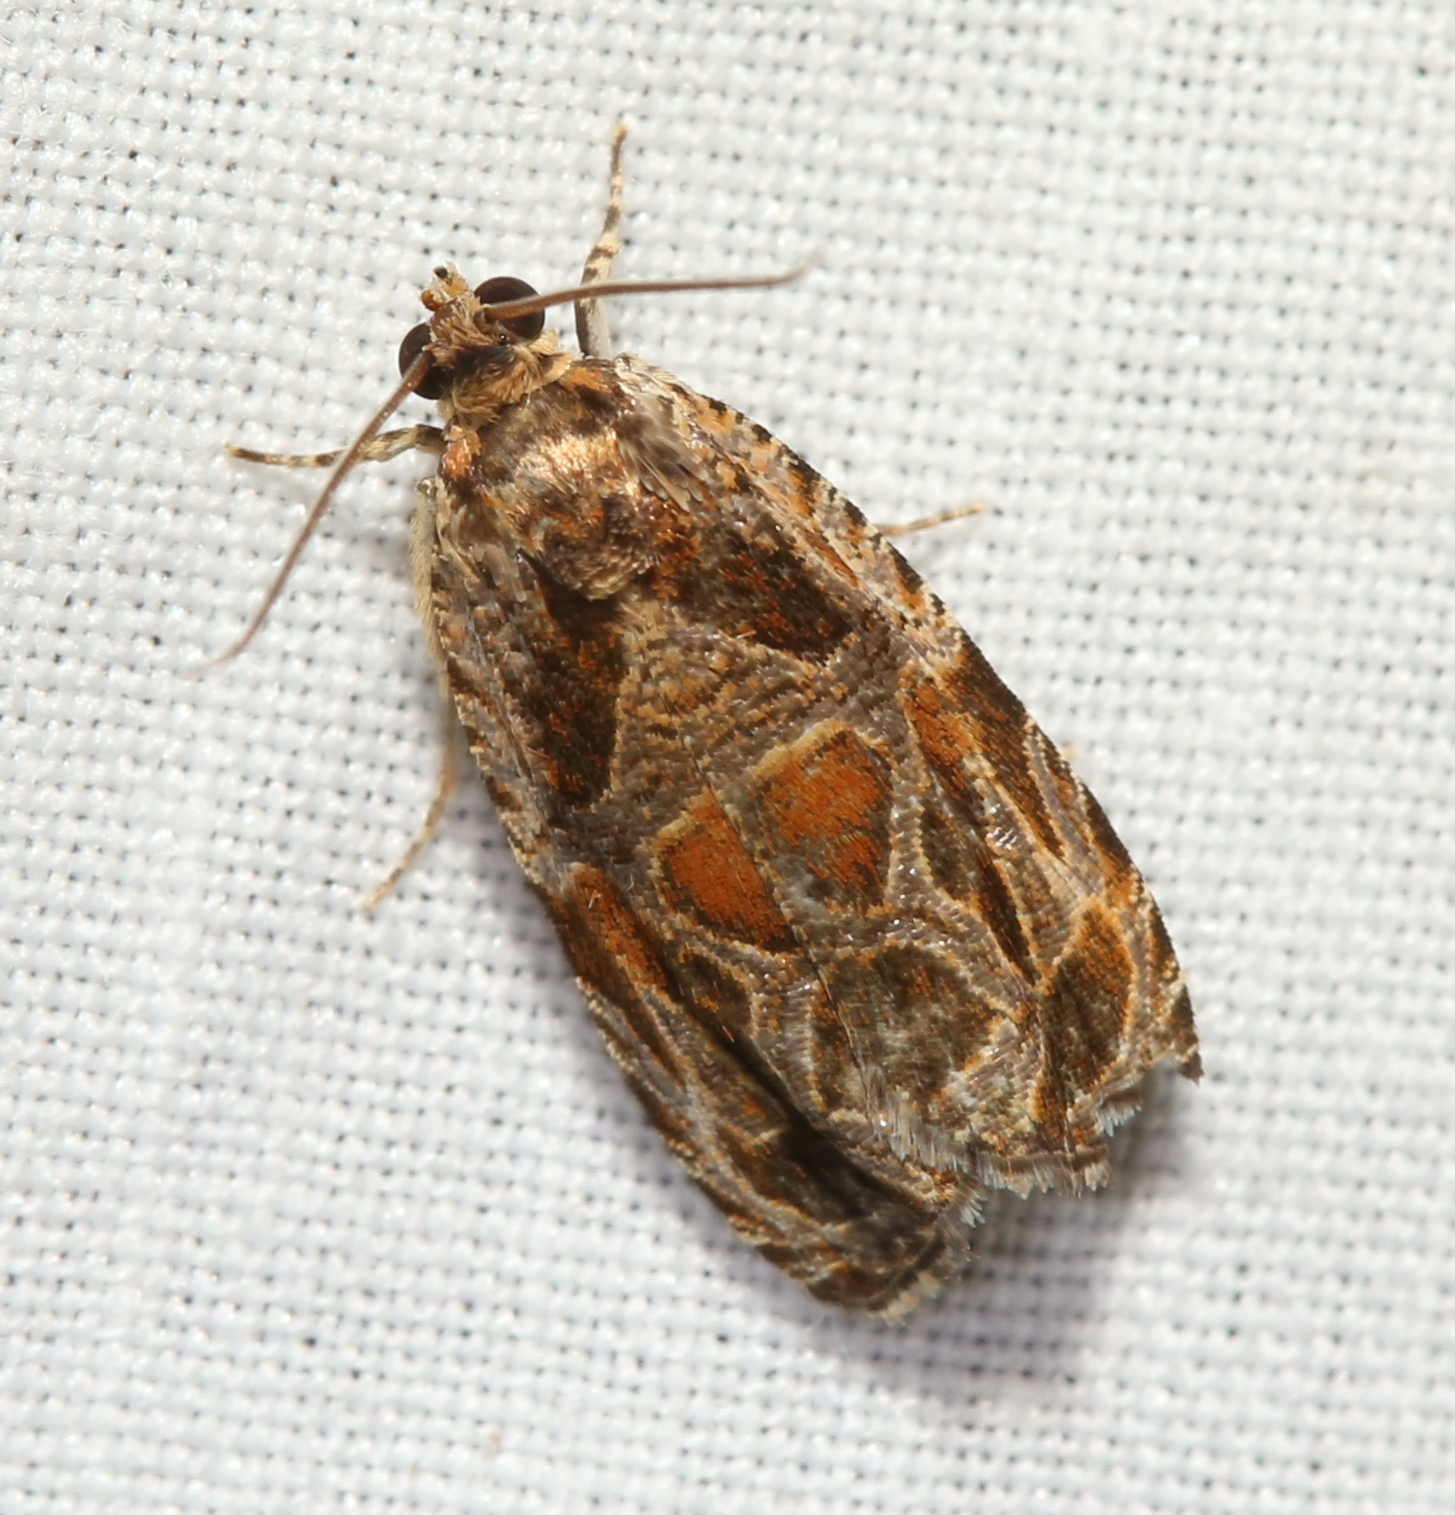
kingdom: Animalia
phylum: Arthropoda
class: Insecta
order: Lepidoptera
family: Tortricidae
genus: Olethreutes
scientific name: Olethreutes lacunana
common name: Lacuna moth
